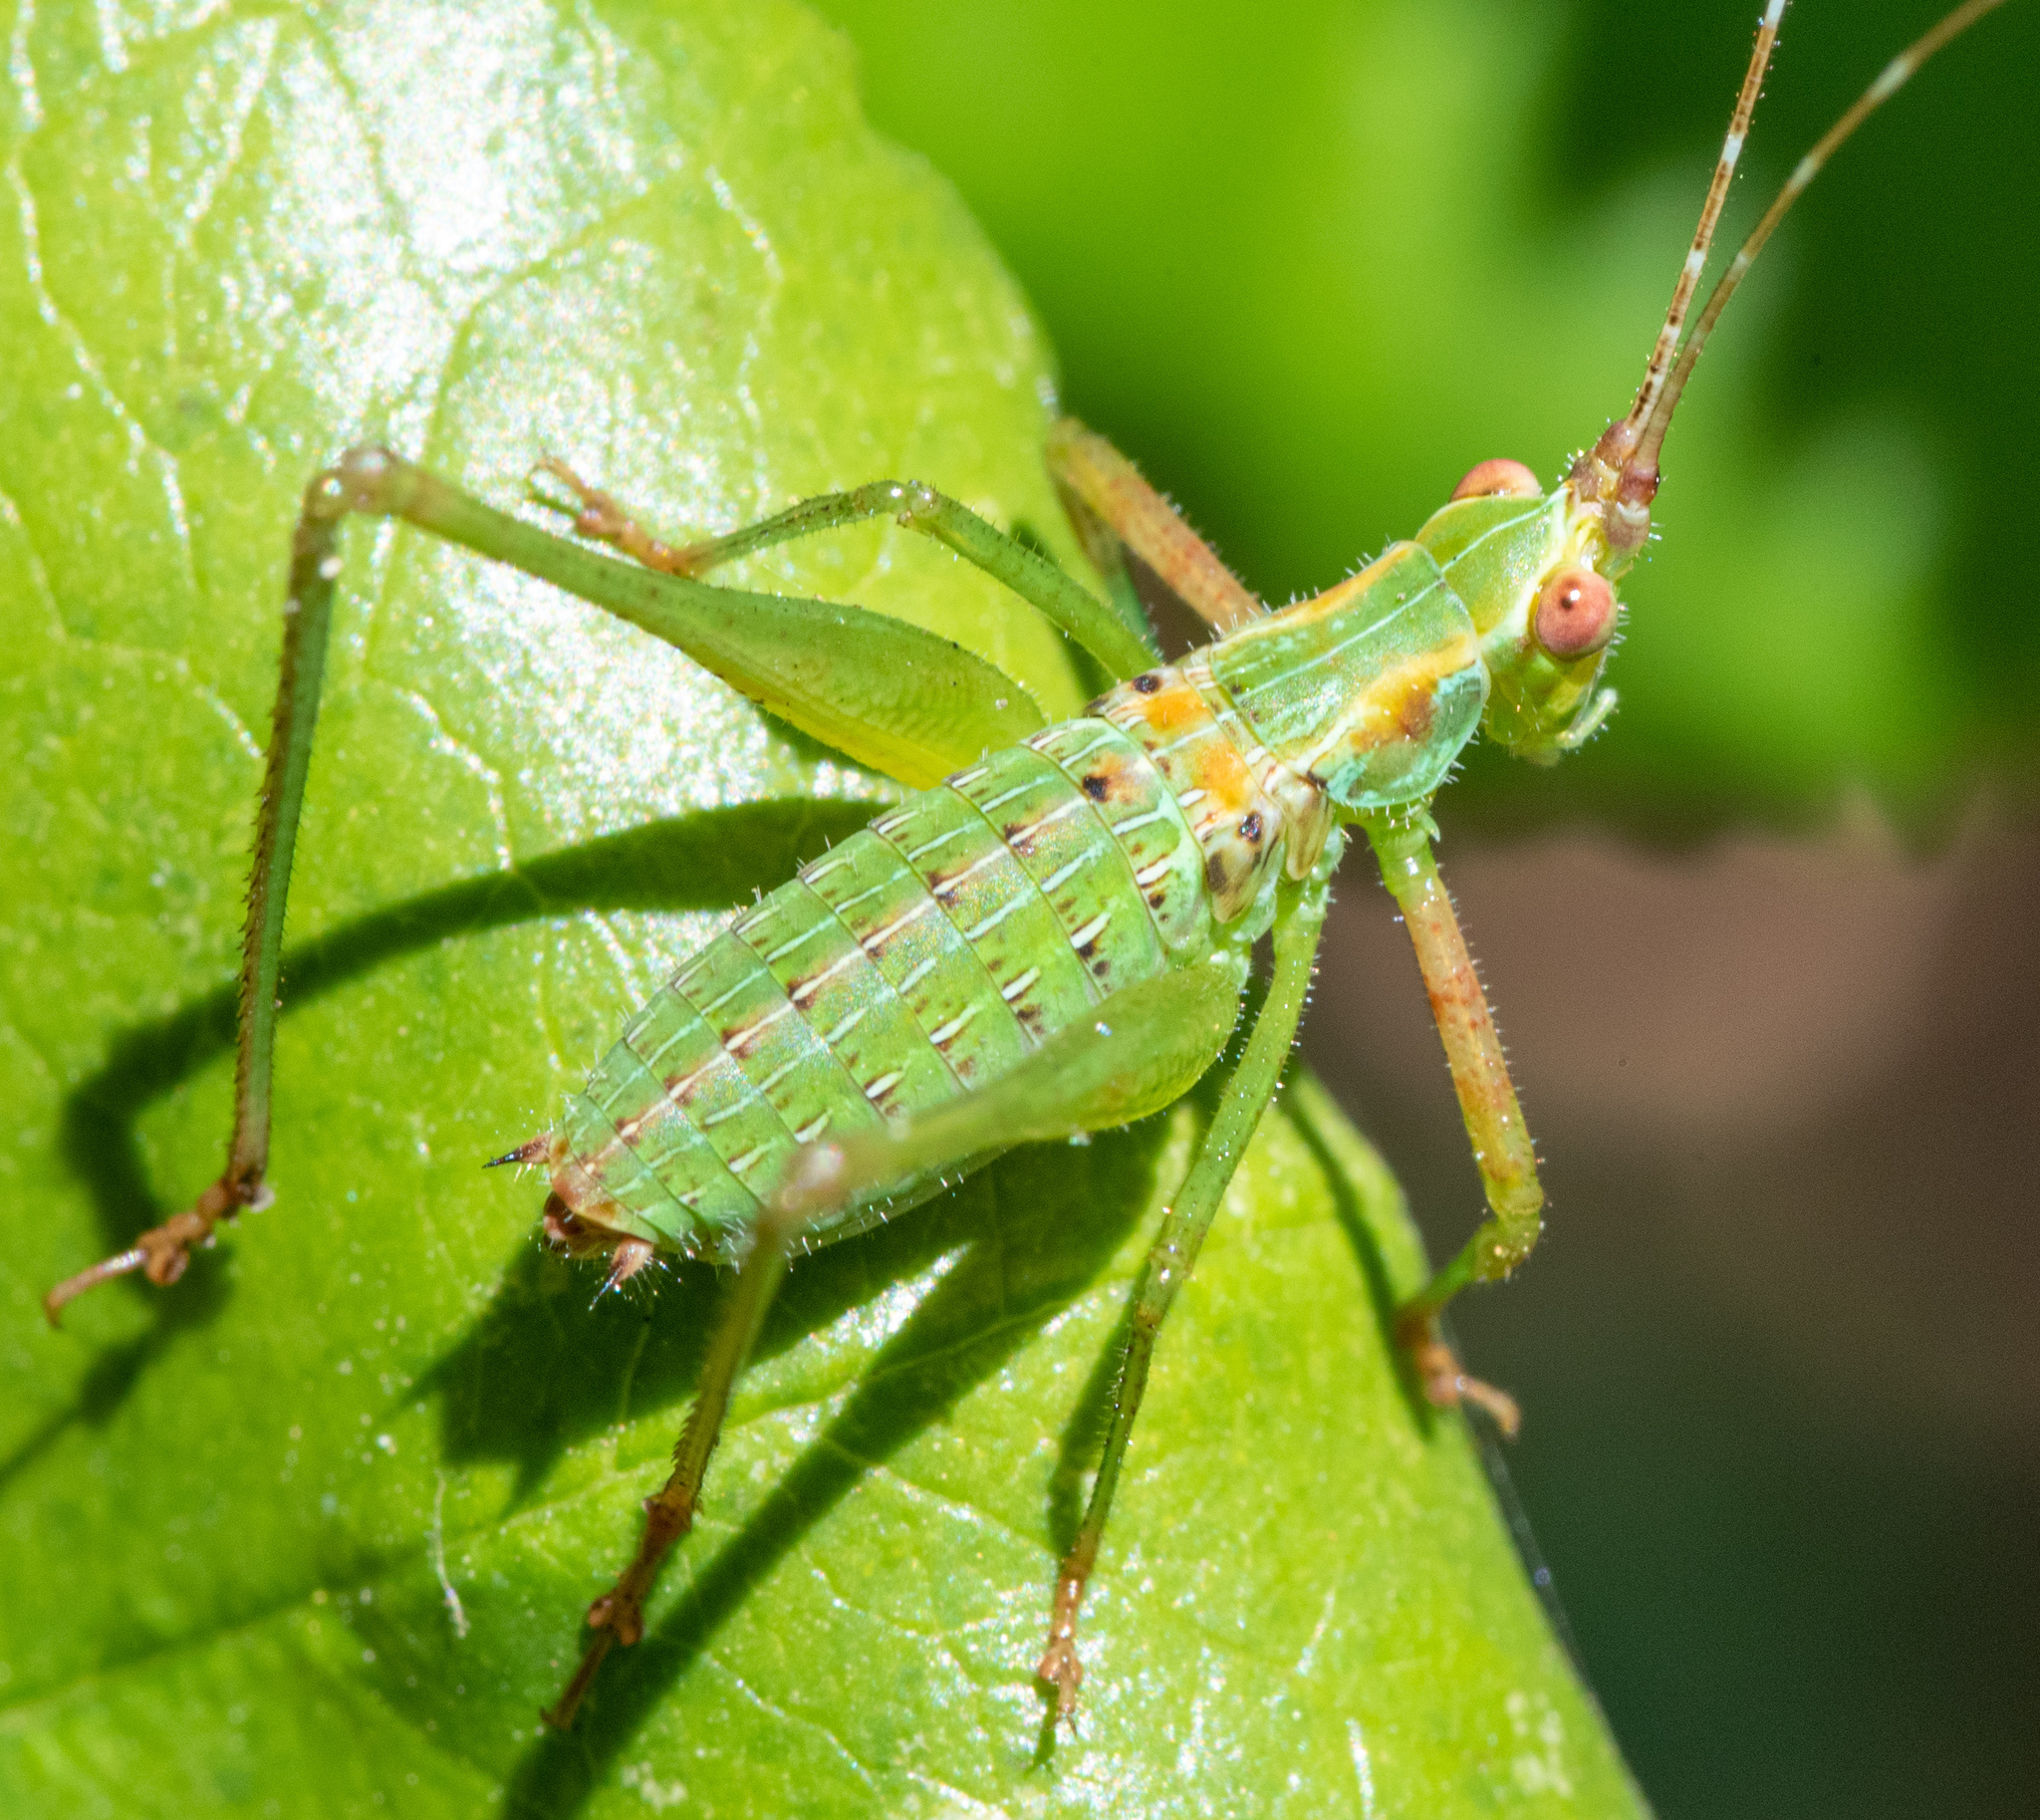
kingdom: Animalia
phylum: Arthropoda
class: Insecta
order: Orthoptera
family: Tettigoniidae
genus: Scudderia
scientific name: Scudderia
